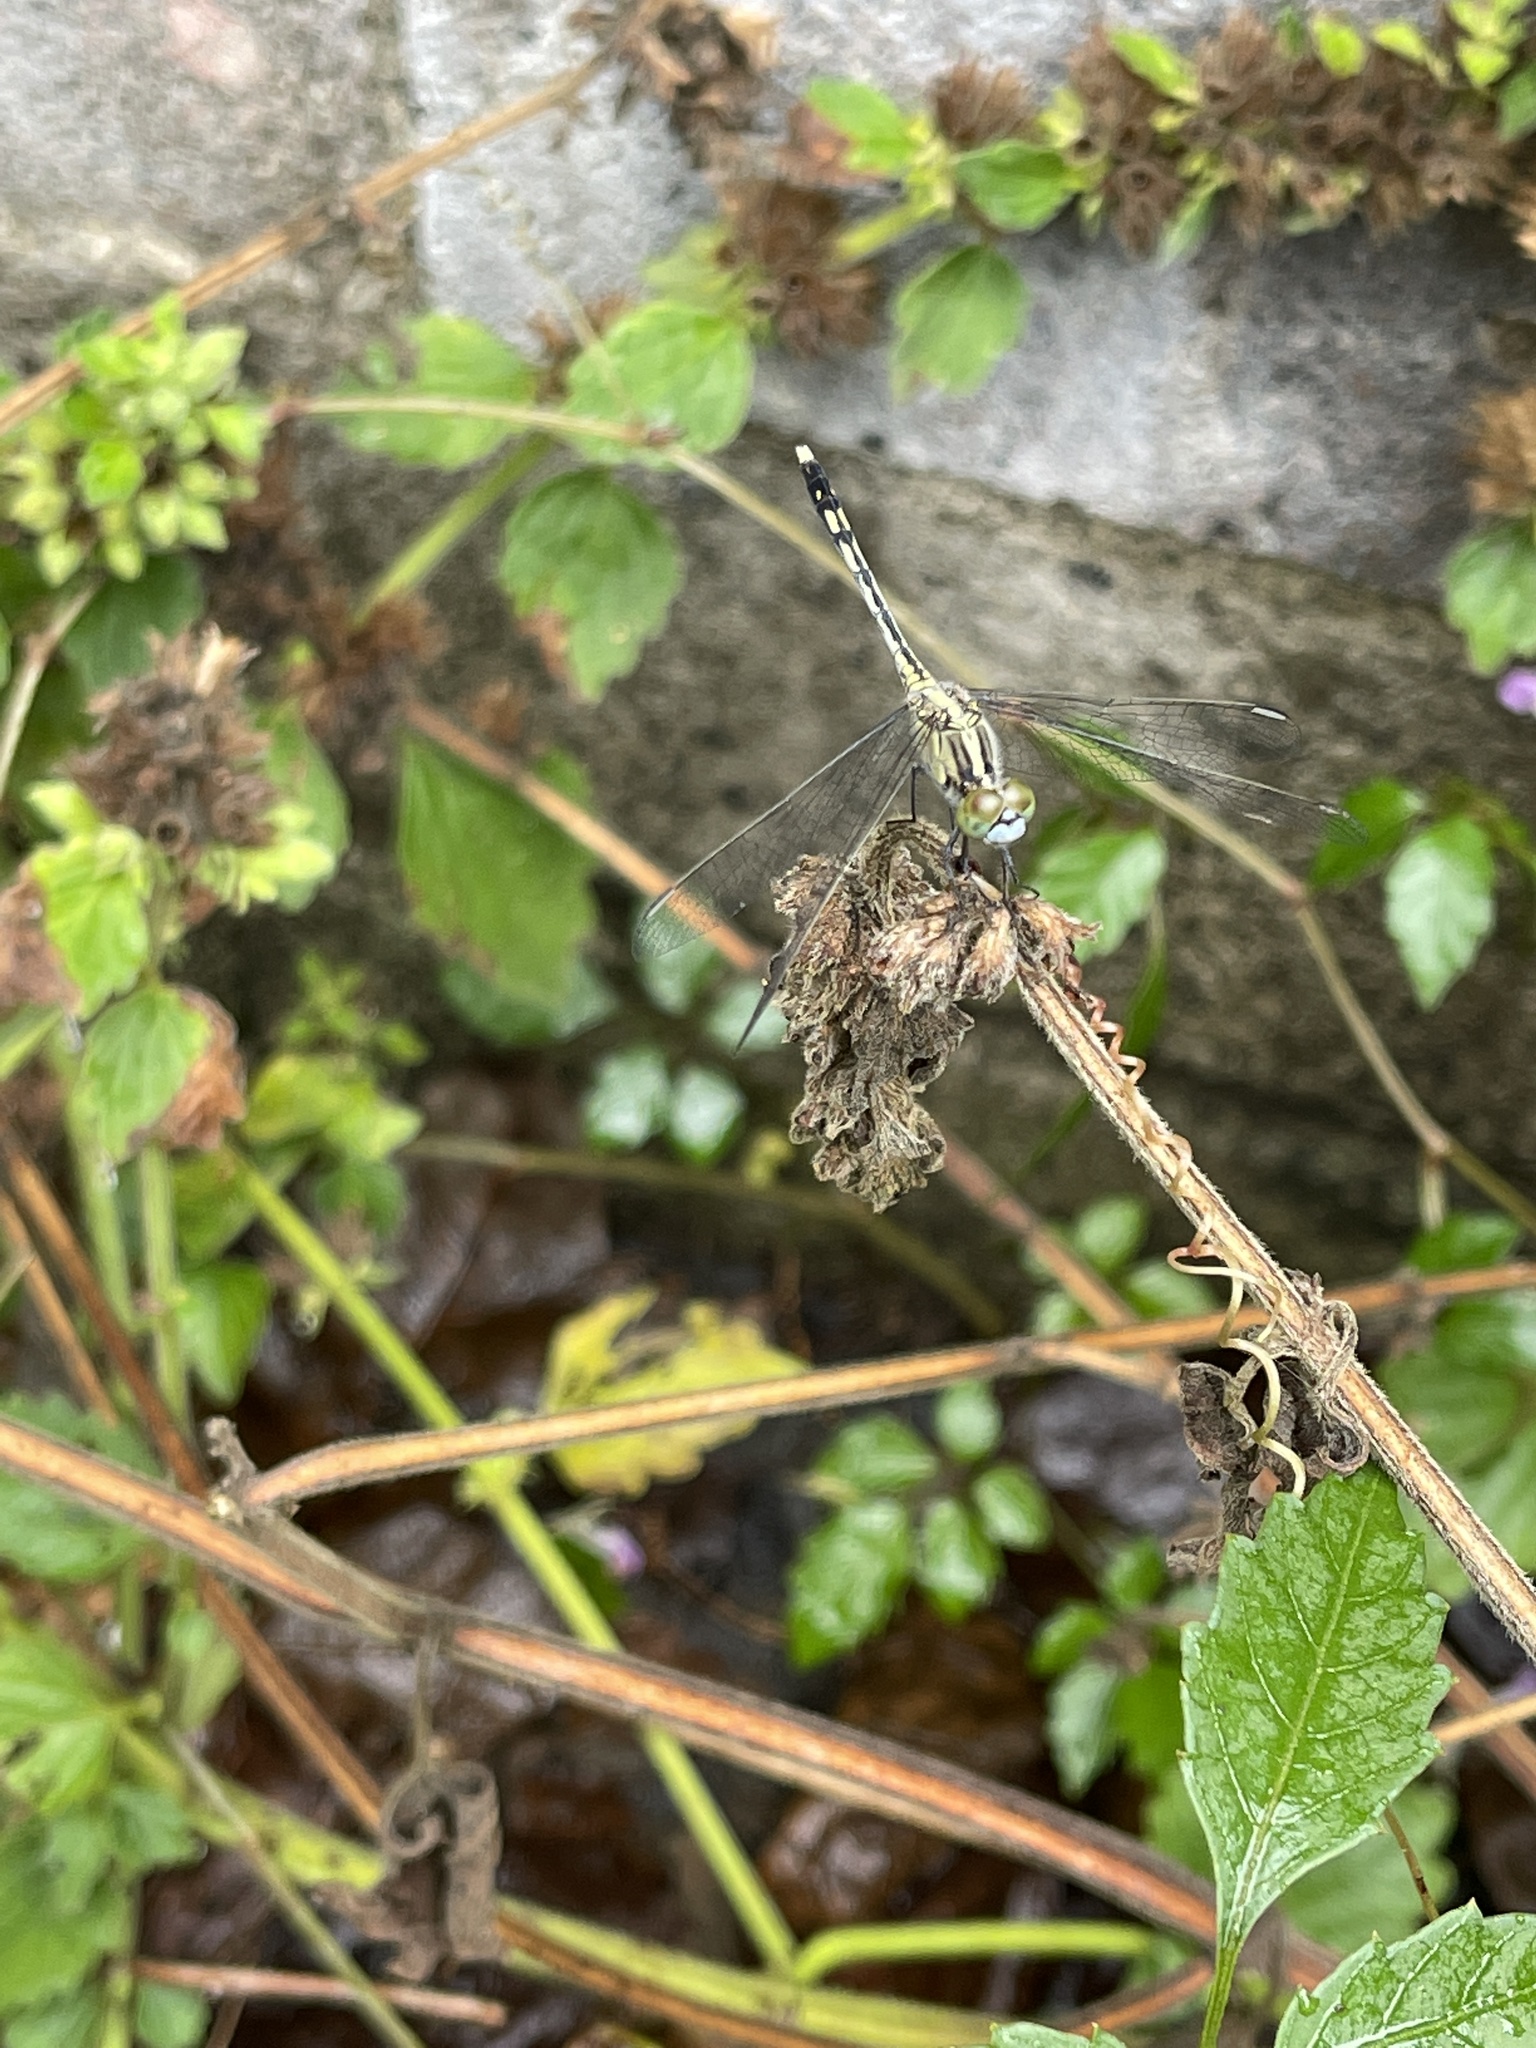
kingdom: Animalia
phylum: Arthropoda
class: Insecta
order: Odonata
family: Libellulidae
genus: Diplacodes
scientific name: Diplacodes trivialis
